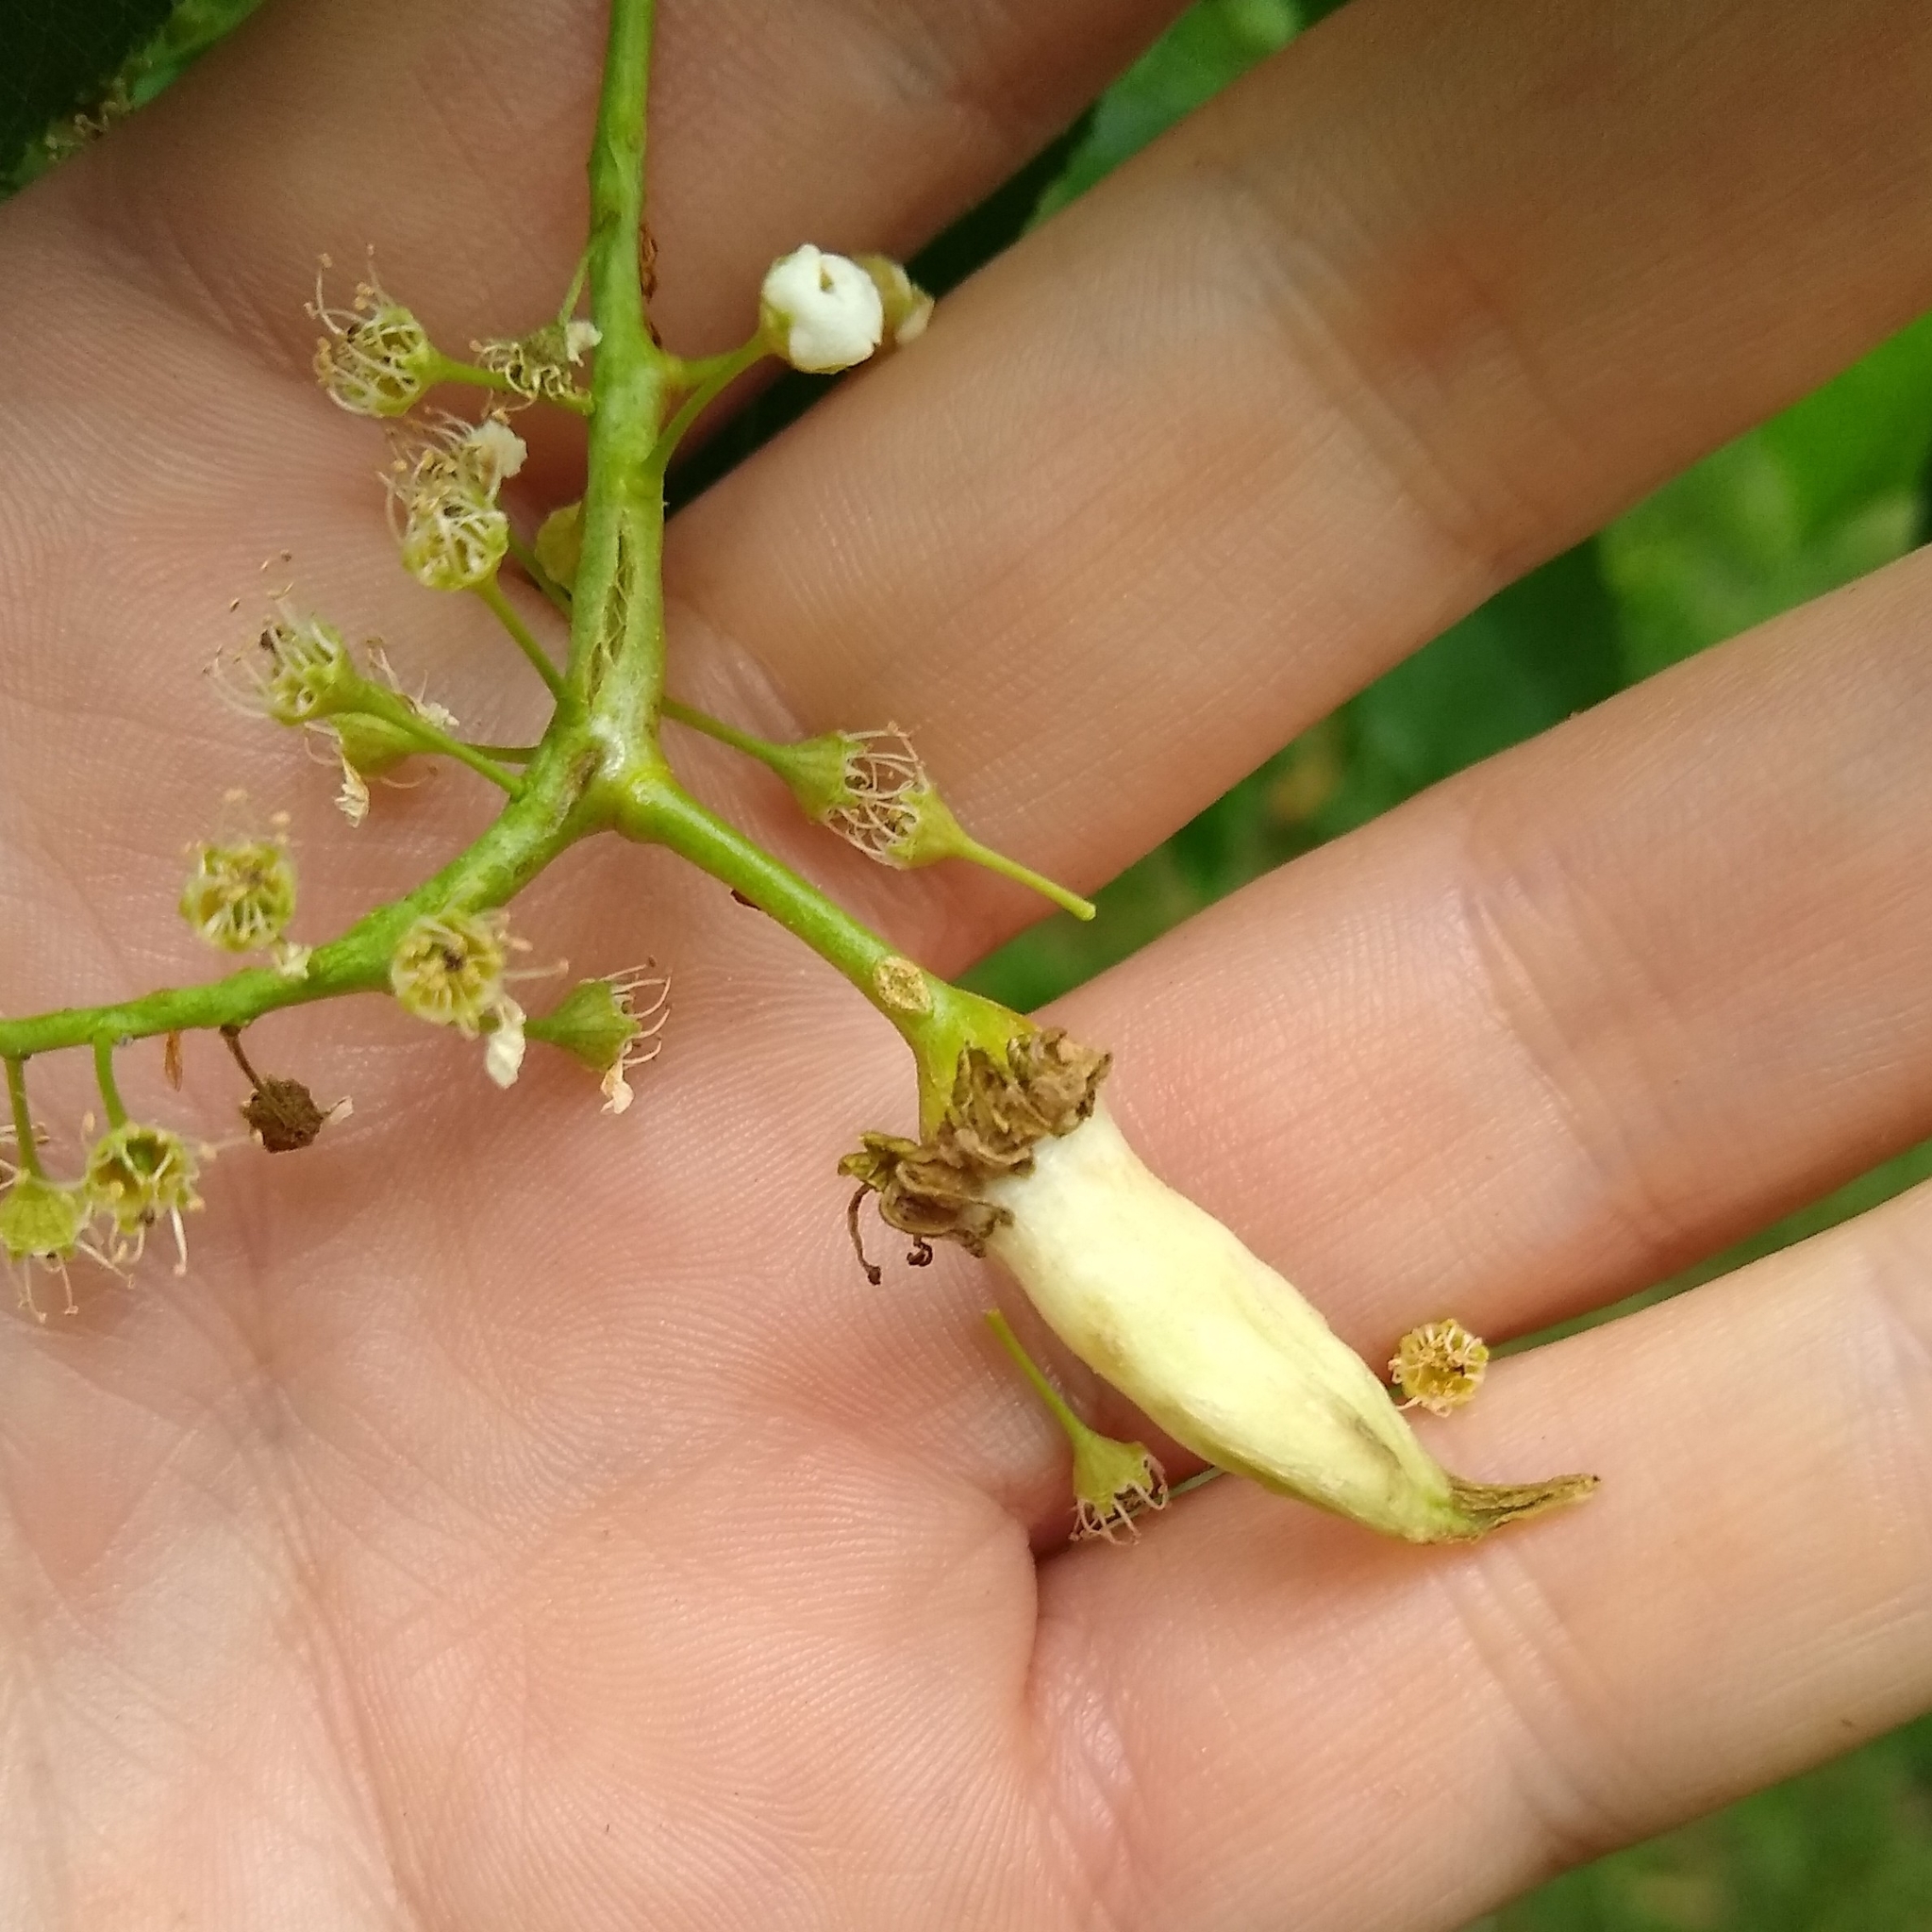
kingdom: Fungi
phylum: Ascomycota
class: Taphrinomycetes
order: Taphrinales
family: Taphrinaceae
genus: Taphrina
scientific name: Taphrina farlowii
